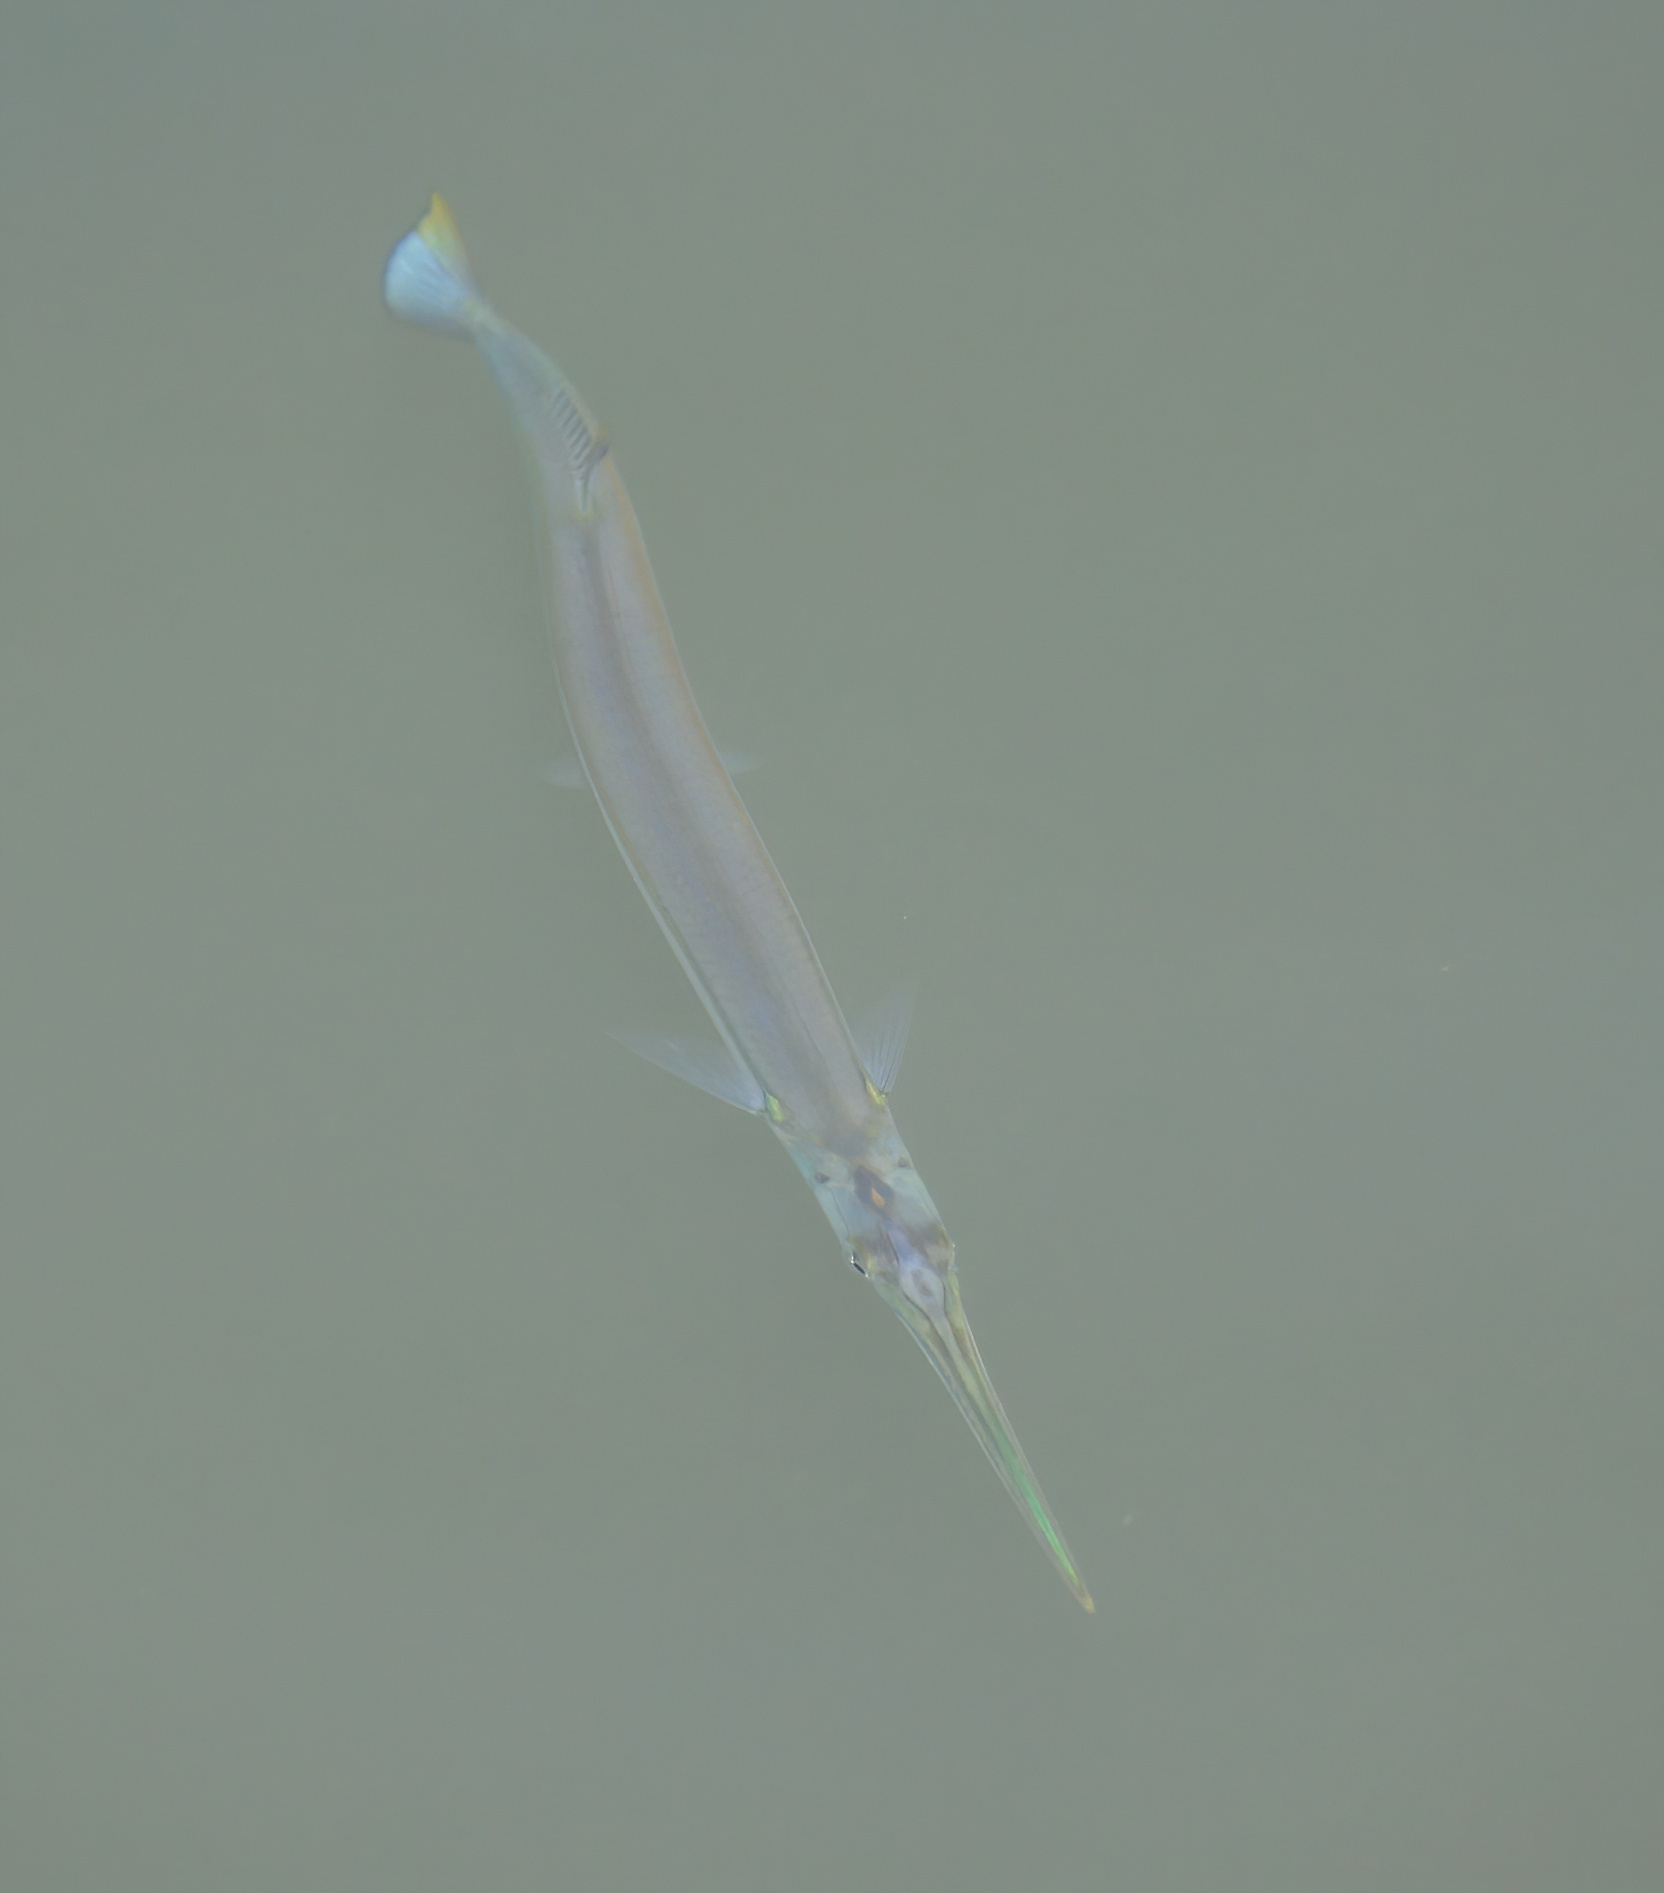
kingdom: Animalia
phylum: Chordata
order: Beloniformes
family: Belonidae
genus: Strongylura
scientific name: Strongylura marina
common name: Atlantic needlefish
